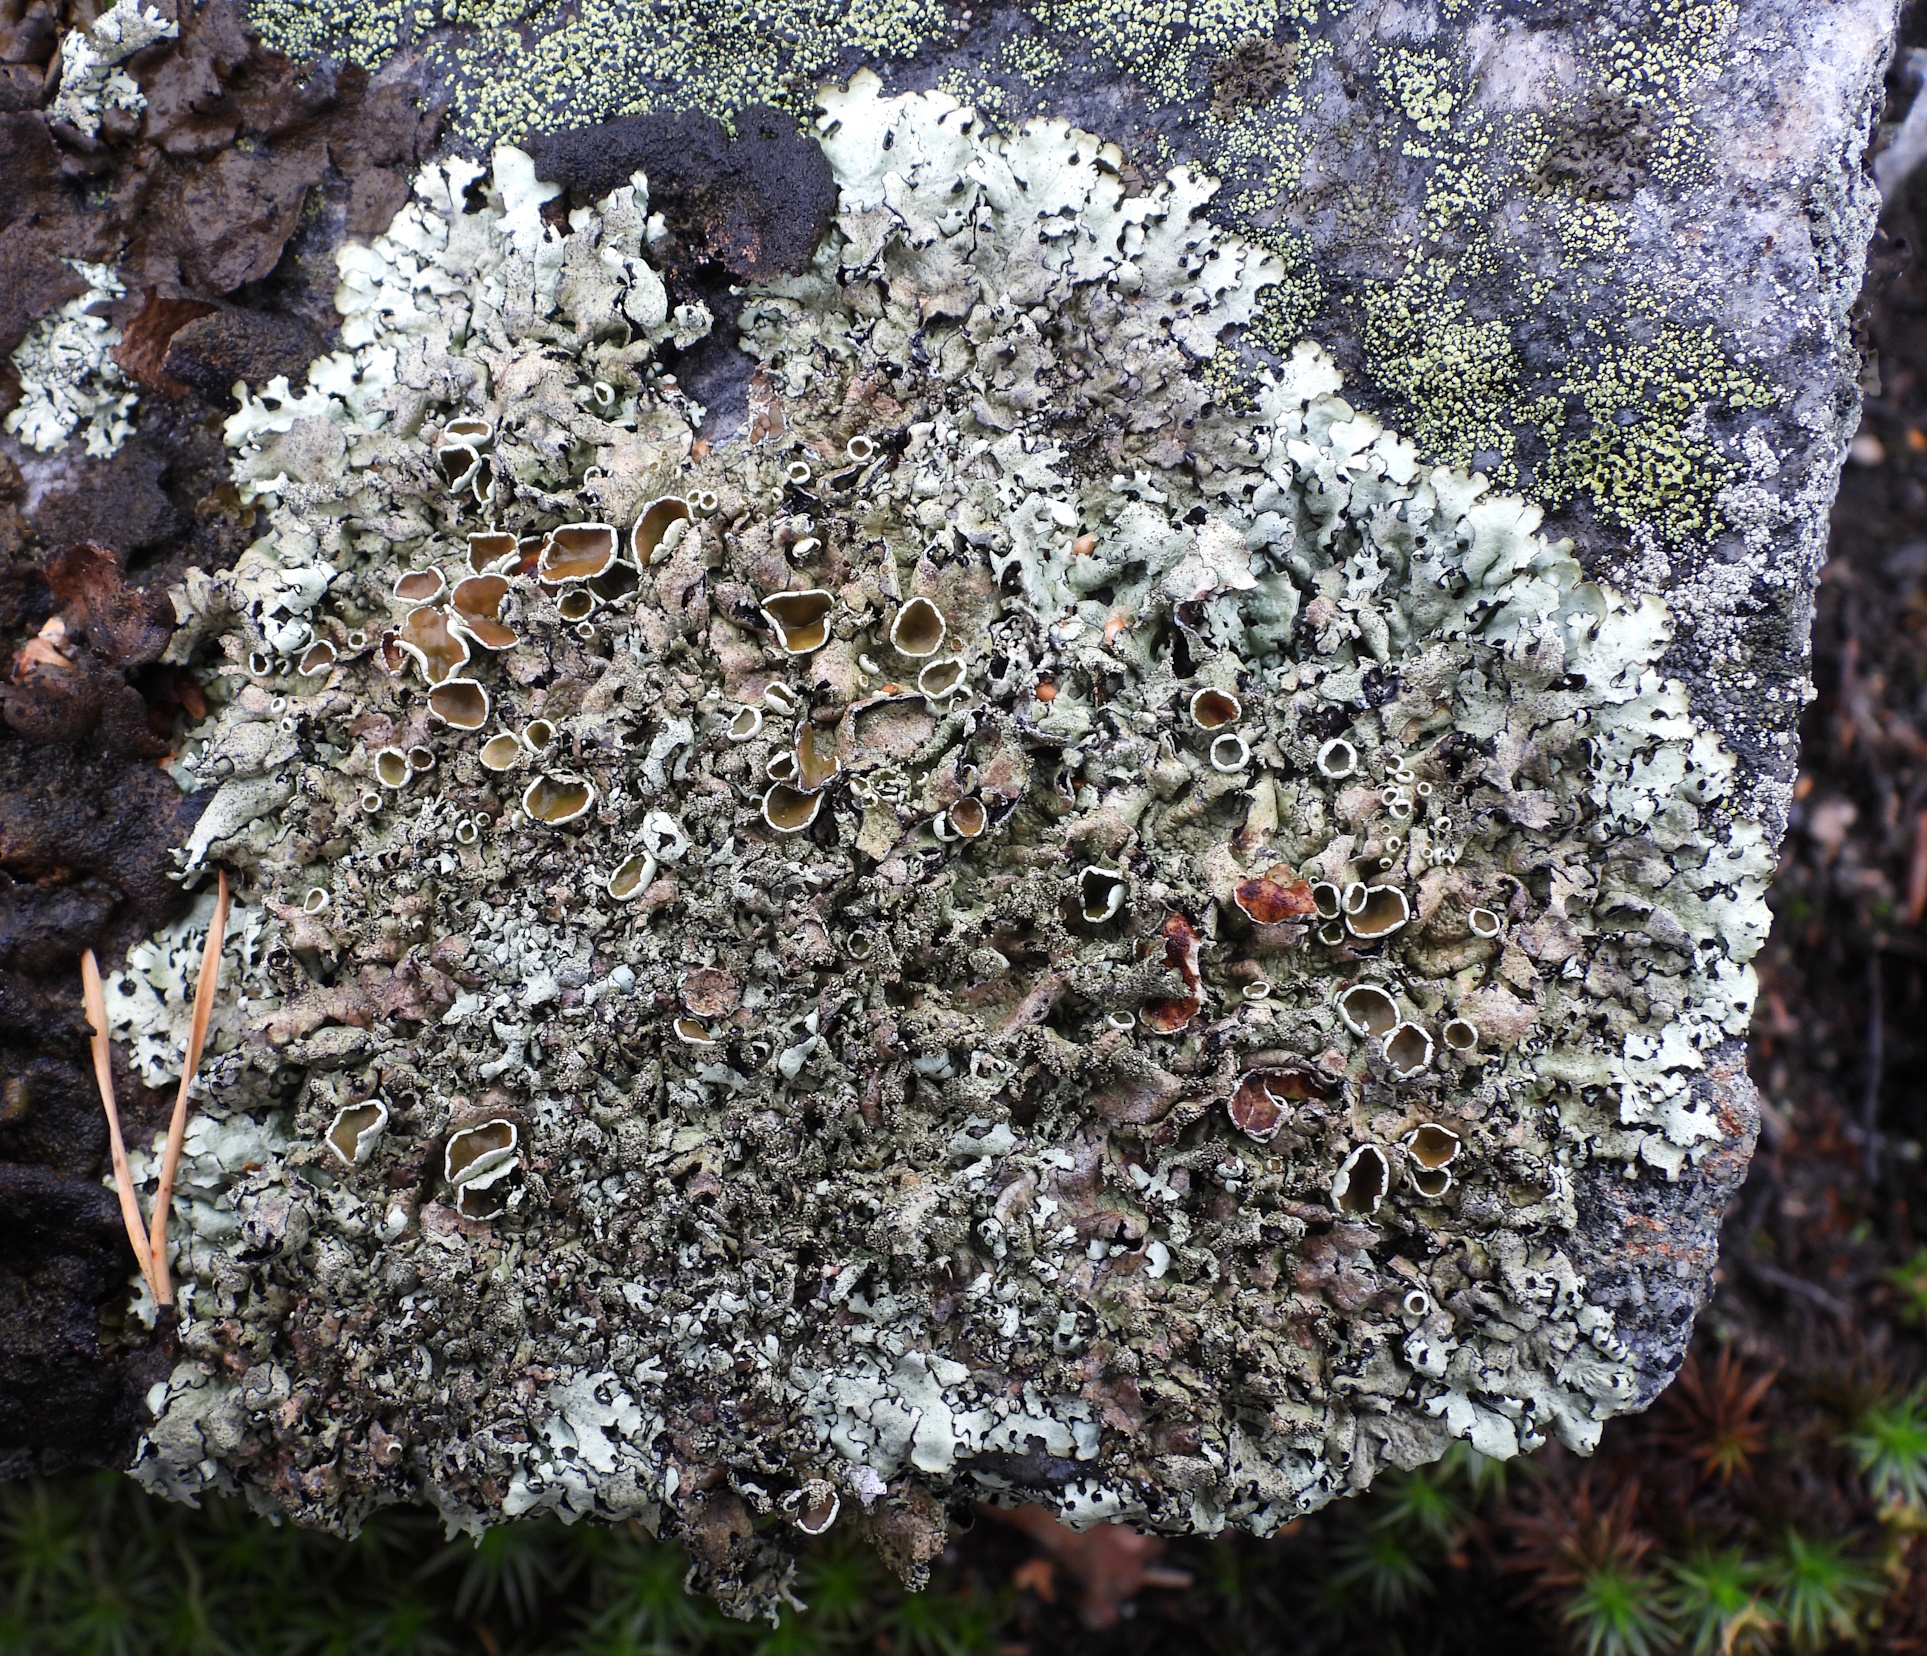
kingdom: Fungi
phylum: Ascomycota
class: Lecanoromycetes
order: Lecanorales
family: Parmeliaceae
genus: Xanthoparmelia
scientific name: Xanthoparmelia conspersa
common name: Peppered rock shield
